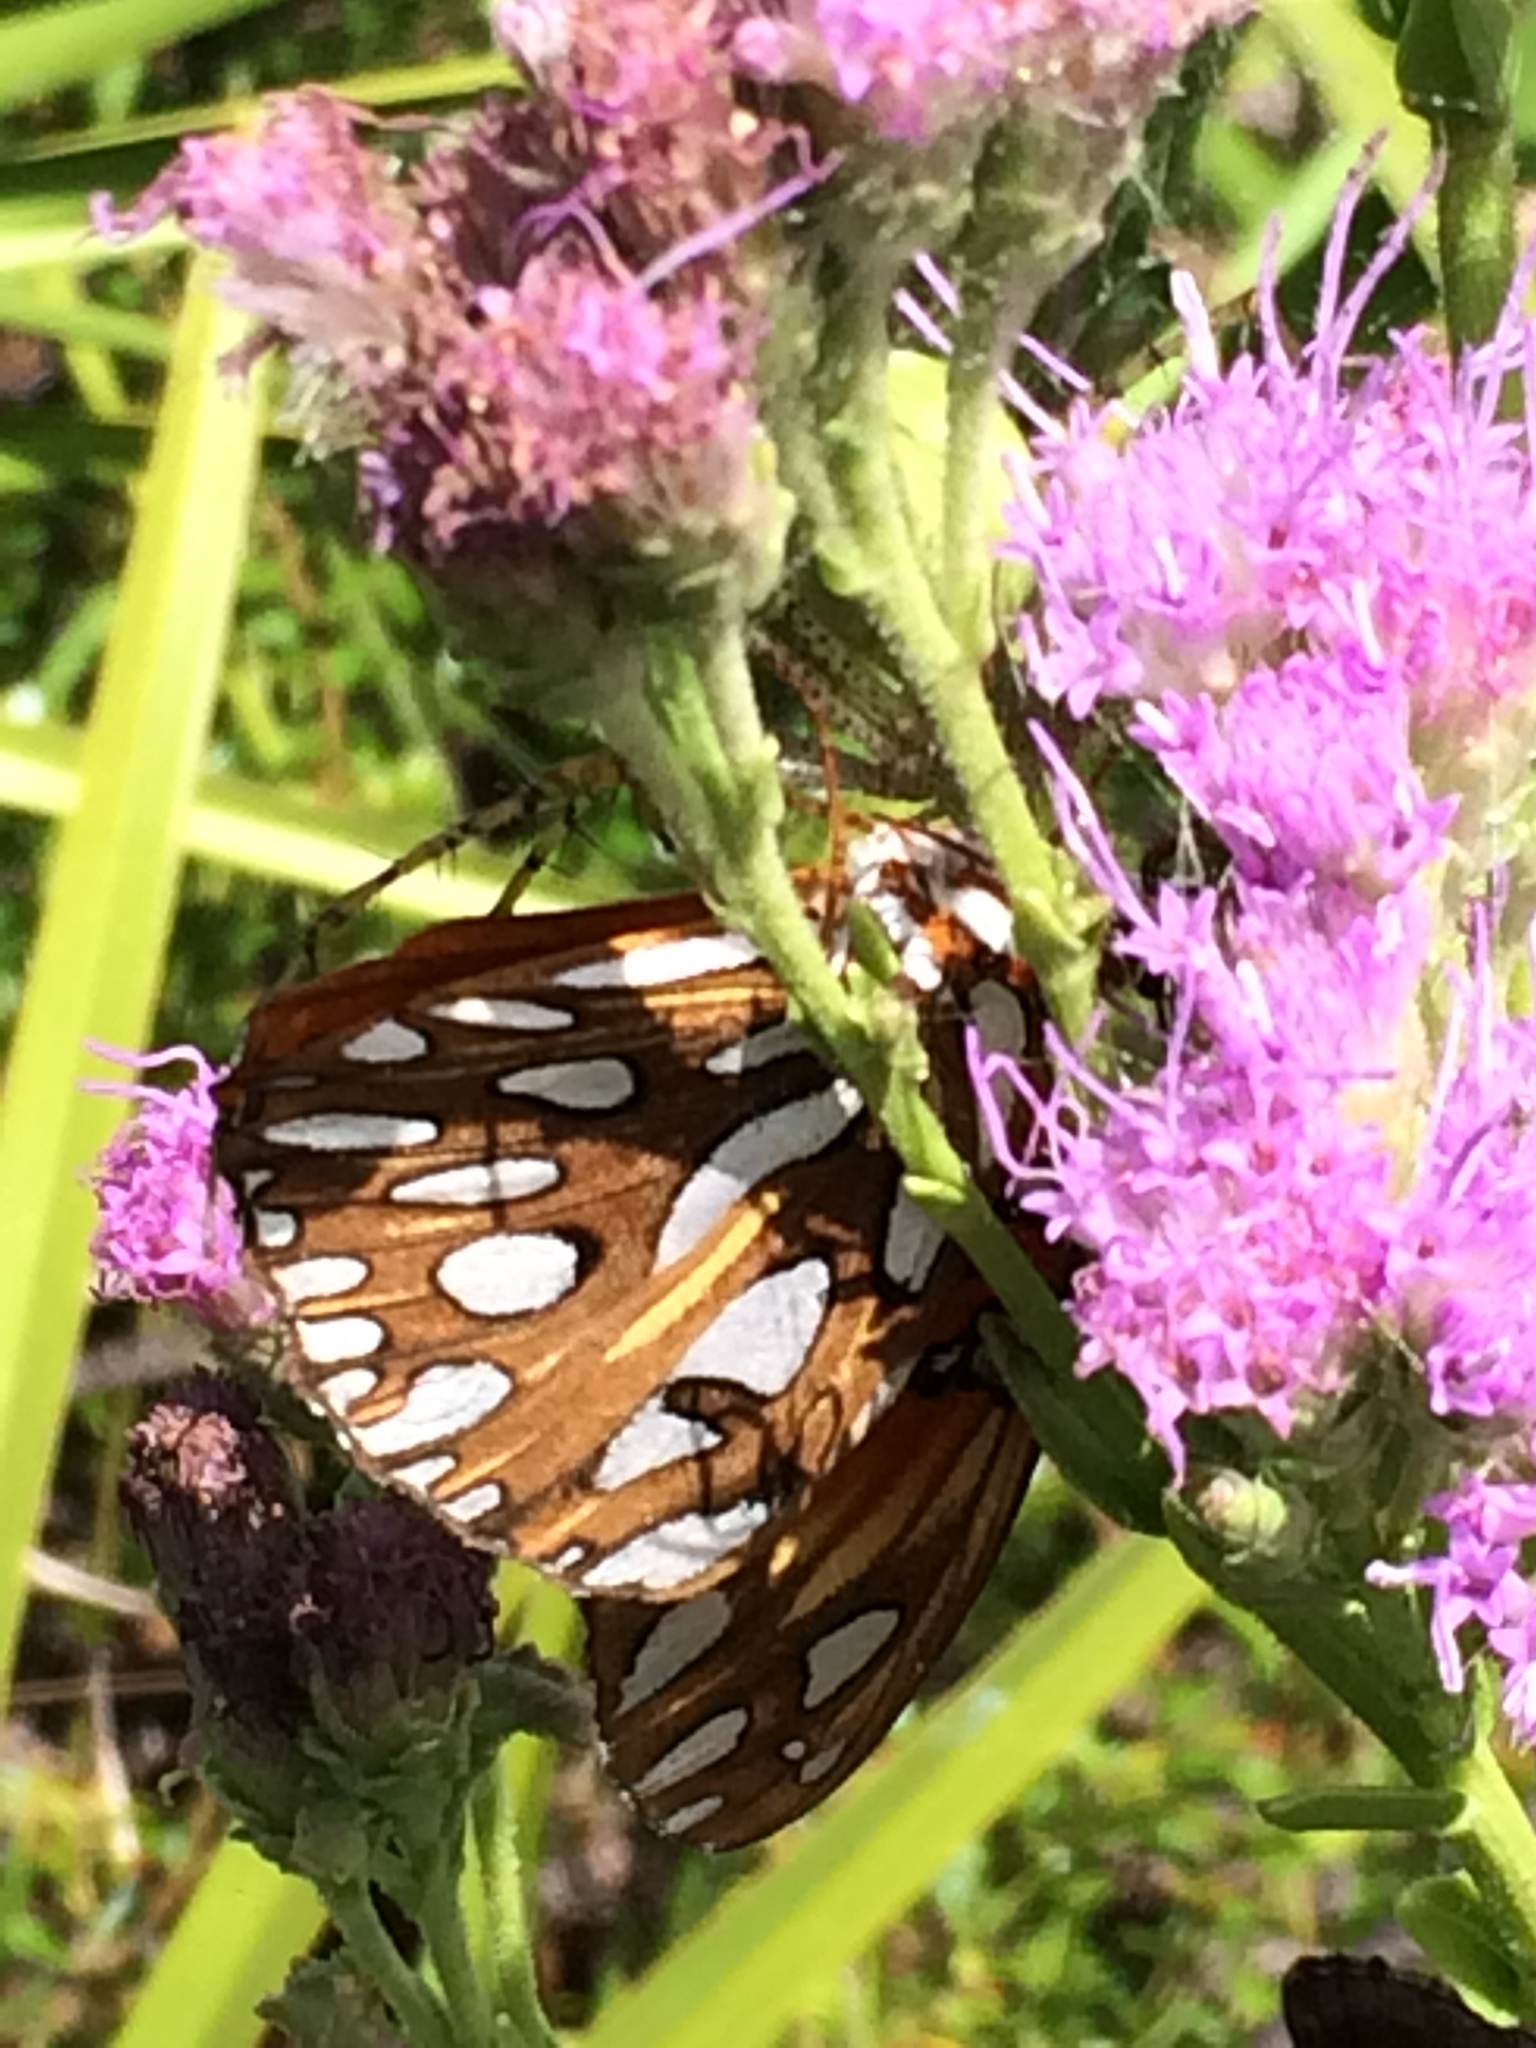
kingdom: Animalia
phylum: Arthropoda
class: Insecta
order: Lepidoptera
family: Nymphalidae
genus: Dione
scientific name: Dione vanillae
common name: Gulf fritillary
